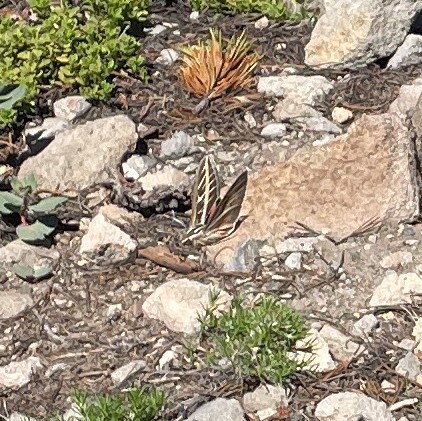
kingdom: Animalia
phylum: Arthropoda
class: Insecta
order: Lepidoptera
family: Sphingidae
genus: Hyles
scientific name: Hyles lineata
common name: White-lined sphinx
